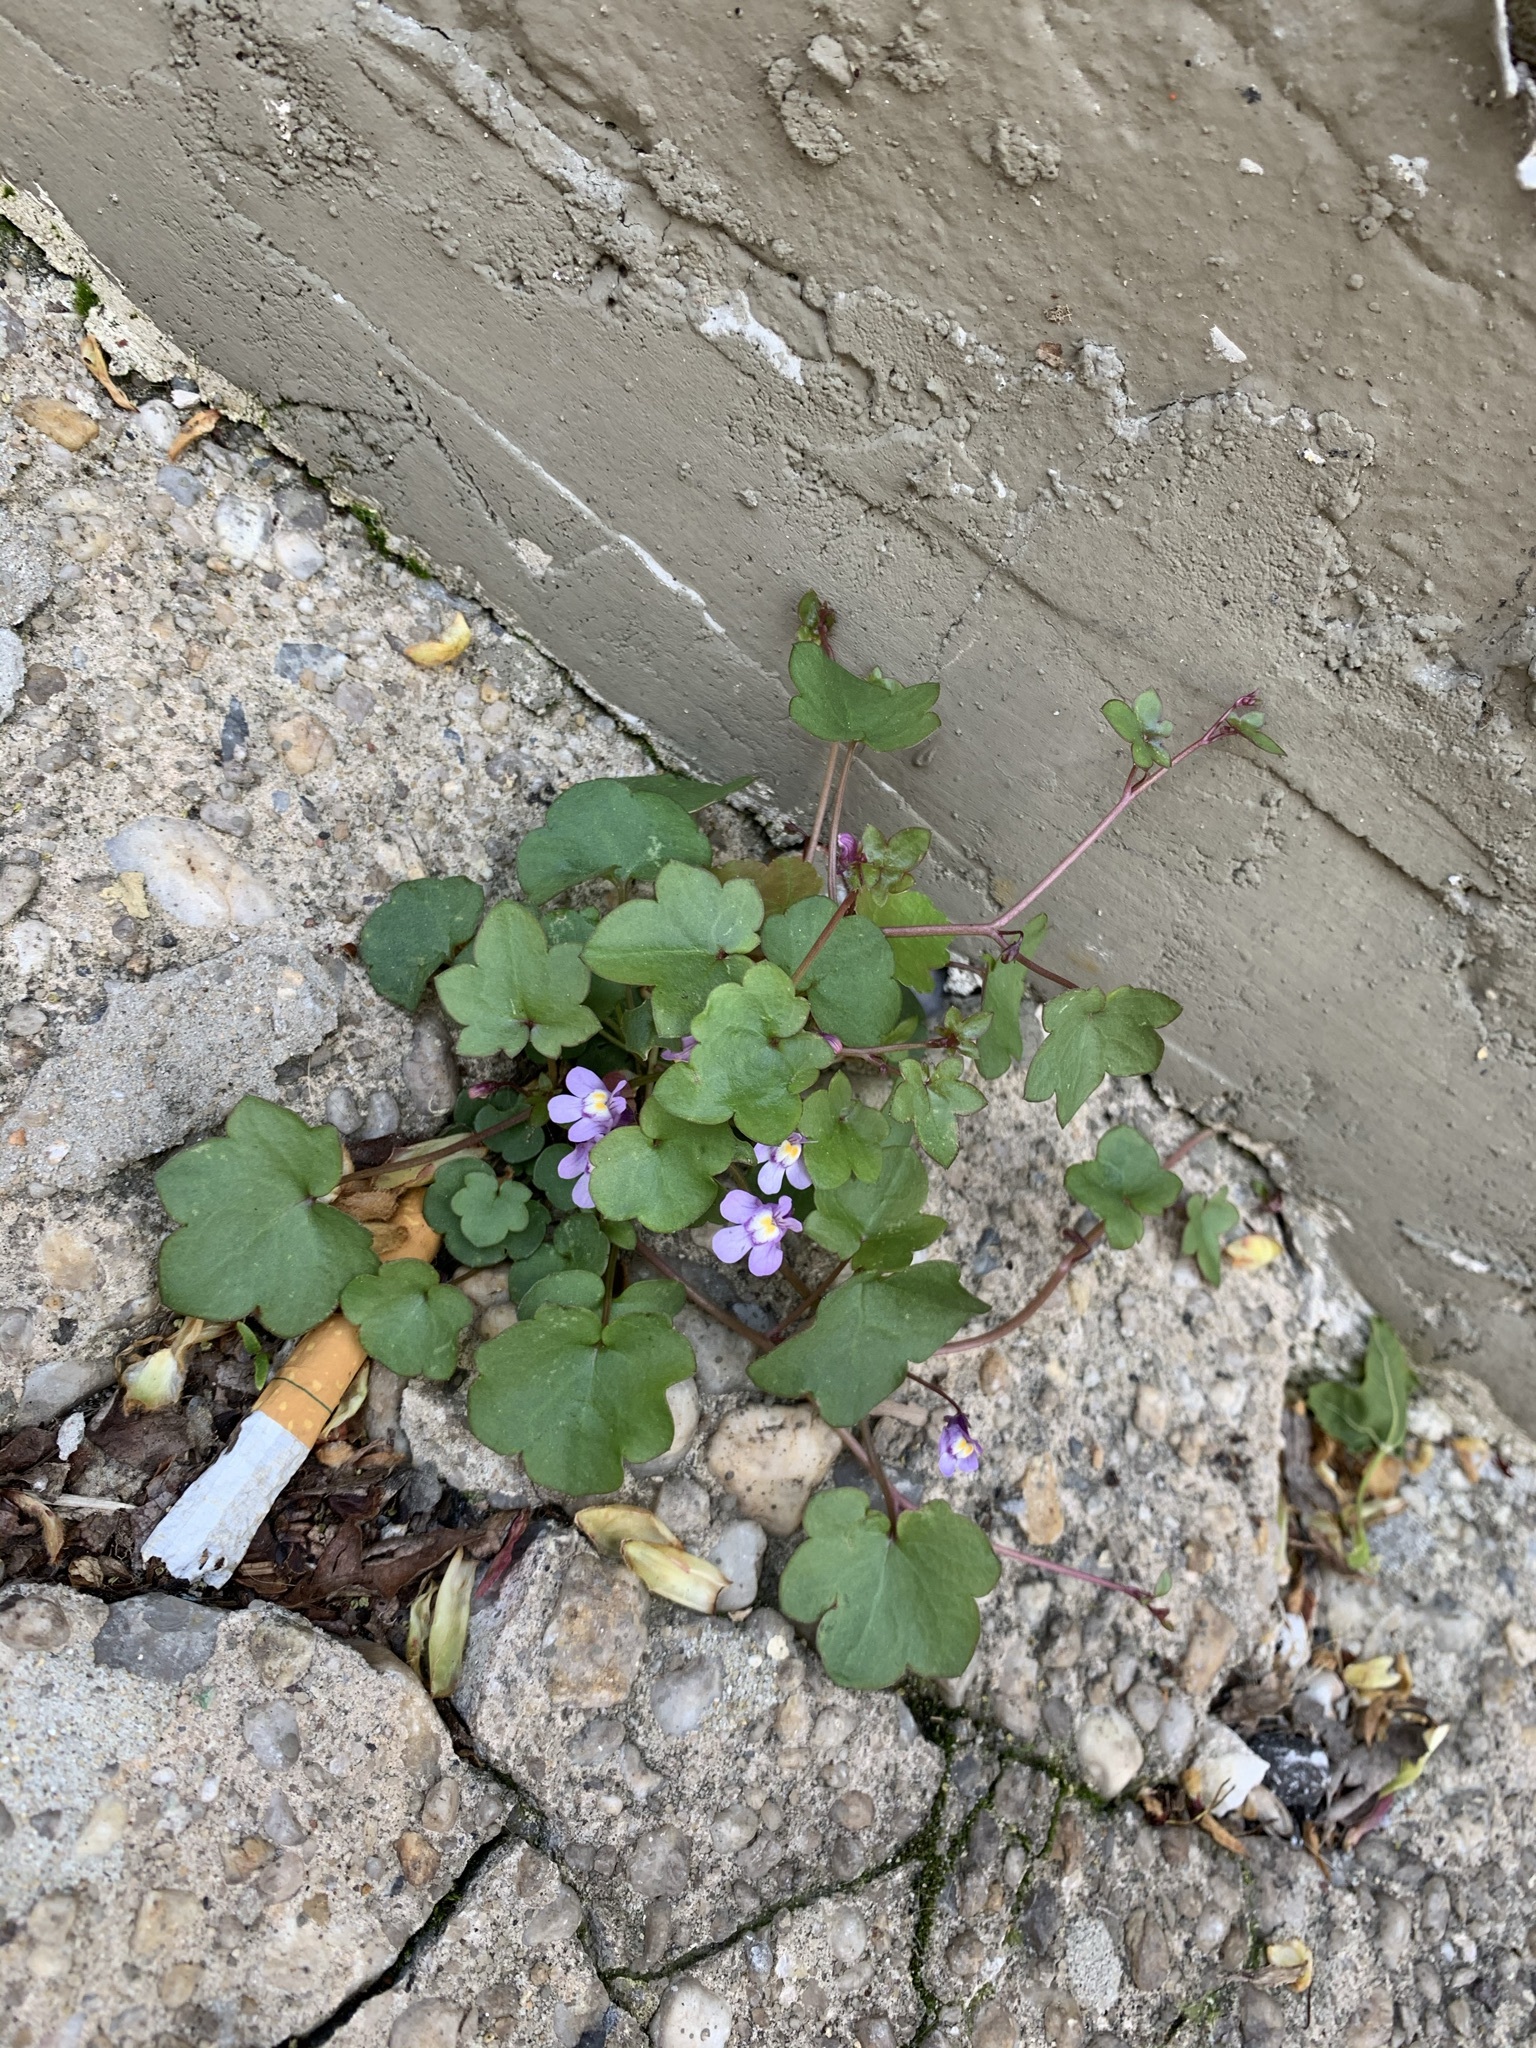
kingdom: Plantae
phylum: Tracheophyta
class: Magnoliopsida
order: Lamiales
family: Plantaginaceae
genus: Cymbalaria
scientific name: Cymbalaria muralis
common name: Ivy-leaved toadflax
